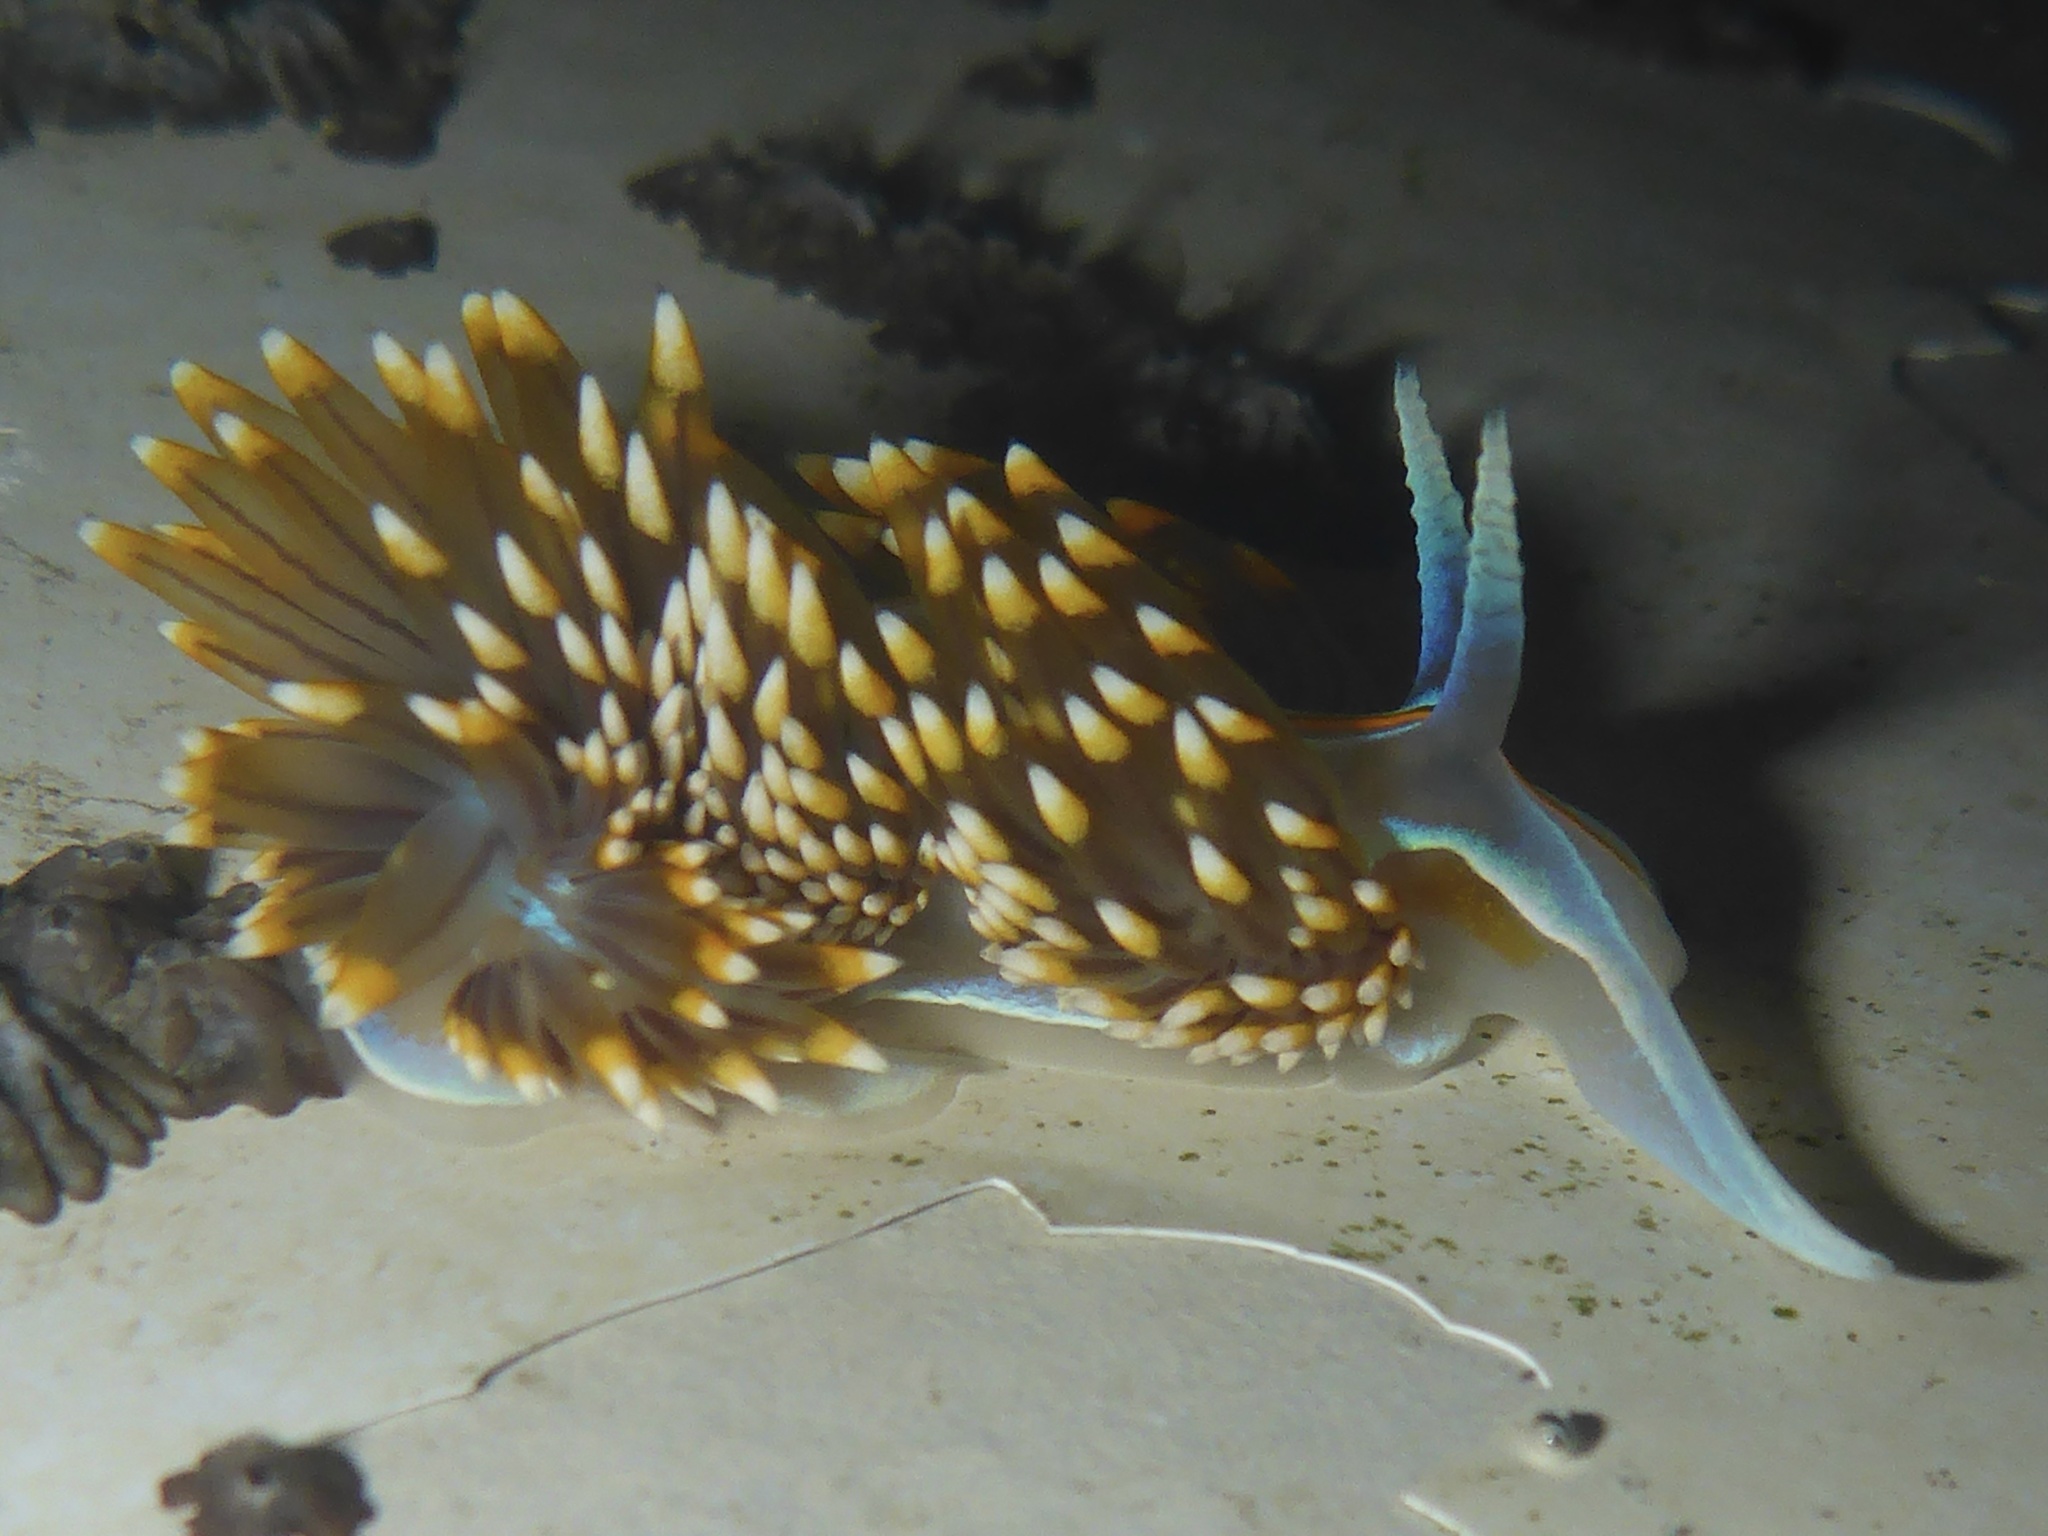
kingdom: Animalia
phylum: Mollusca
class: Gastropoda
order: Nudibranchia
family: Myrrhinidae
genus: Hermissenda
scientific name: Hermissenda opalescens
